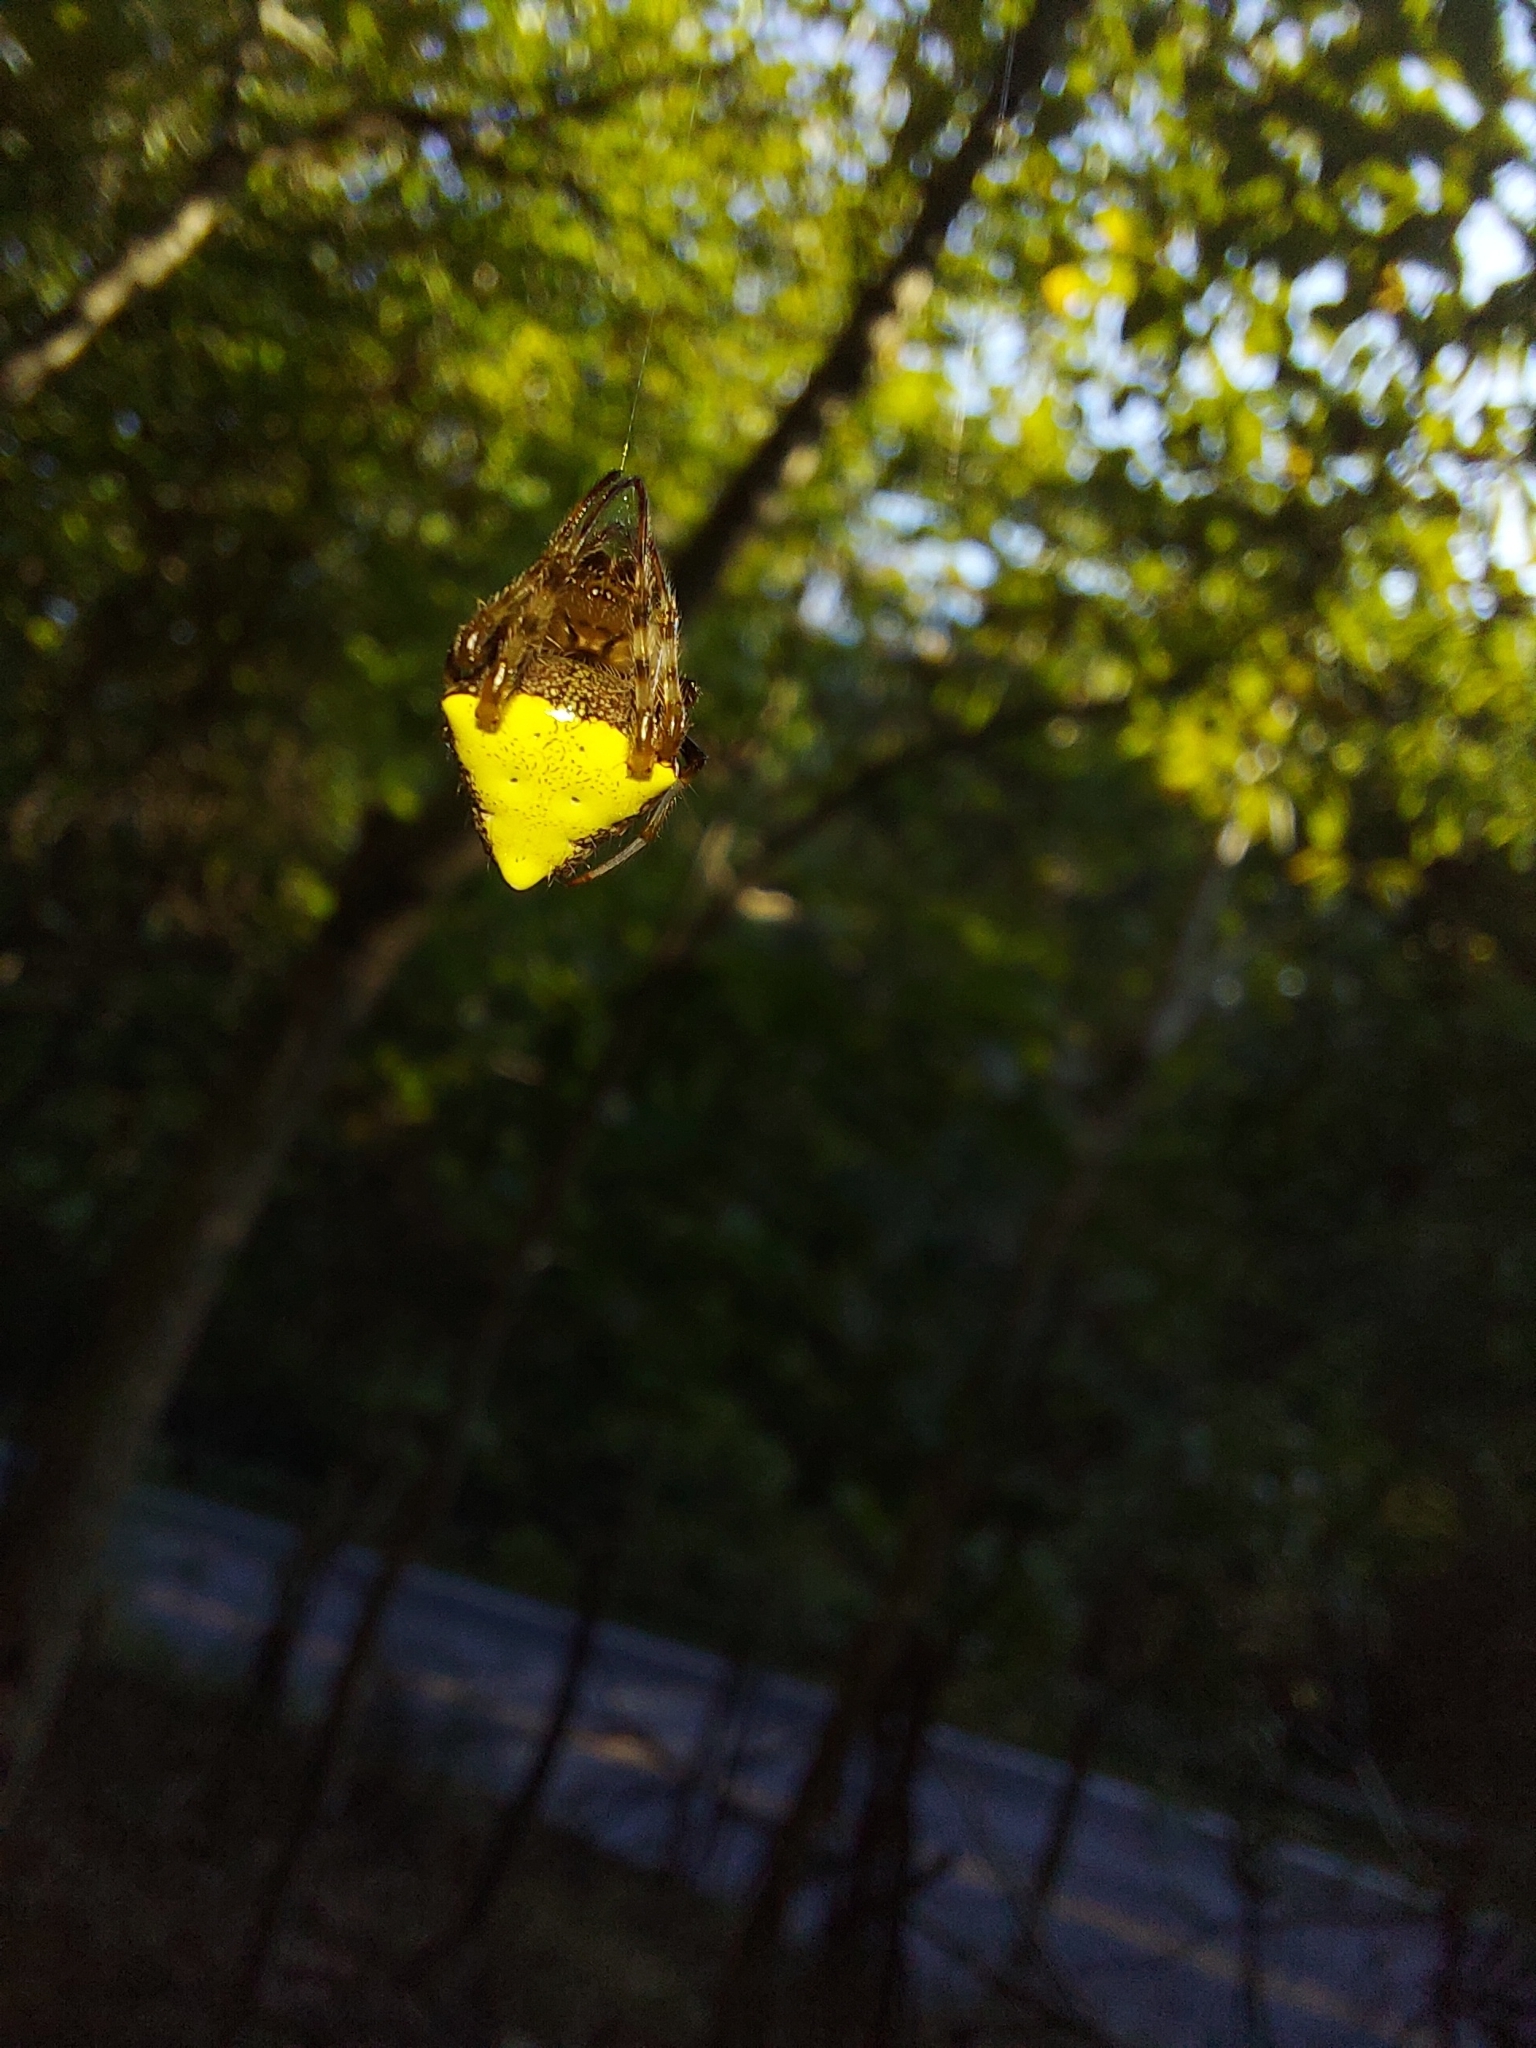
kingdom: Animalia
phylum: Arthropoda
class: Arachnida
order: Araneae
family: Araneidae
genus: Verrucosa
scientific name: Verrucosa arenata
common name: Orb weavers
